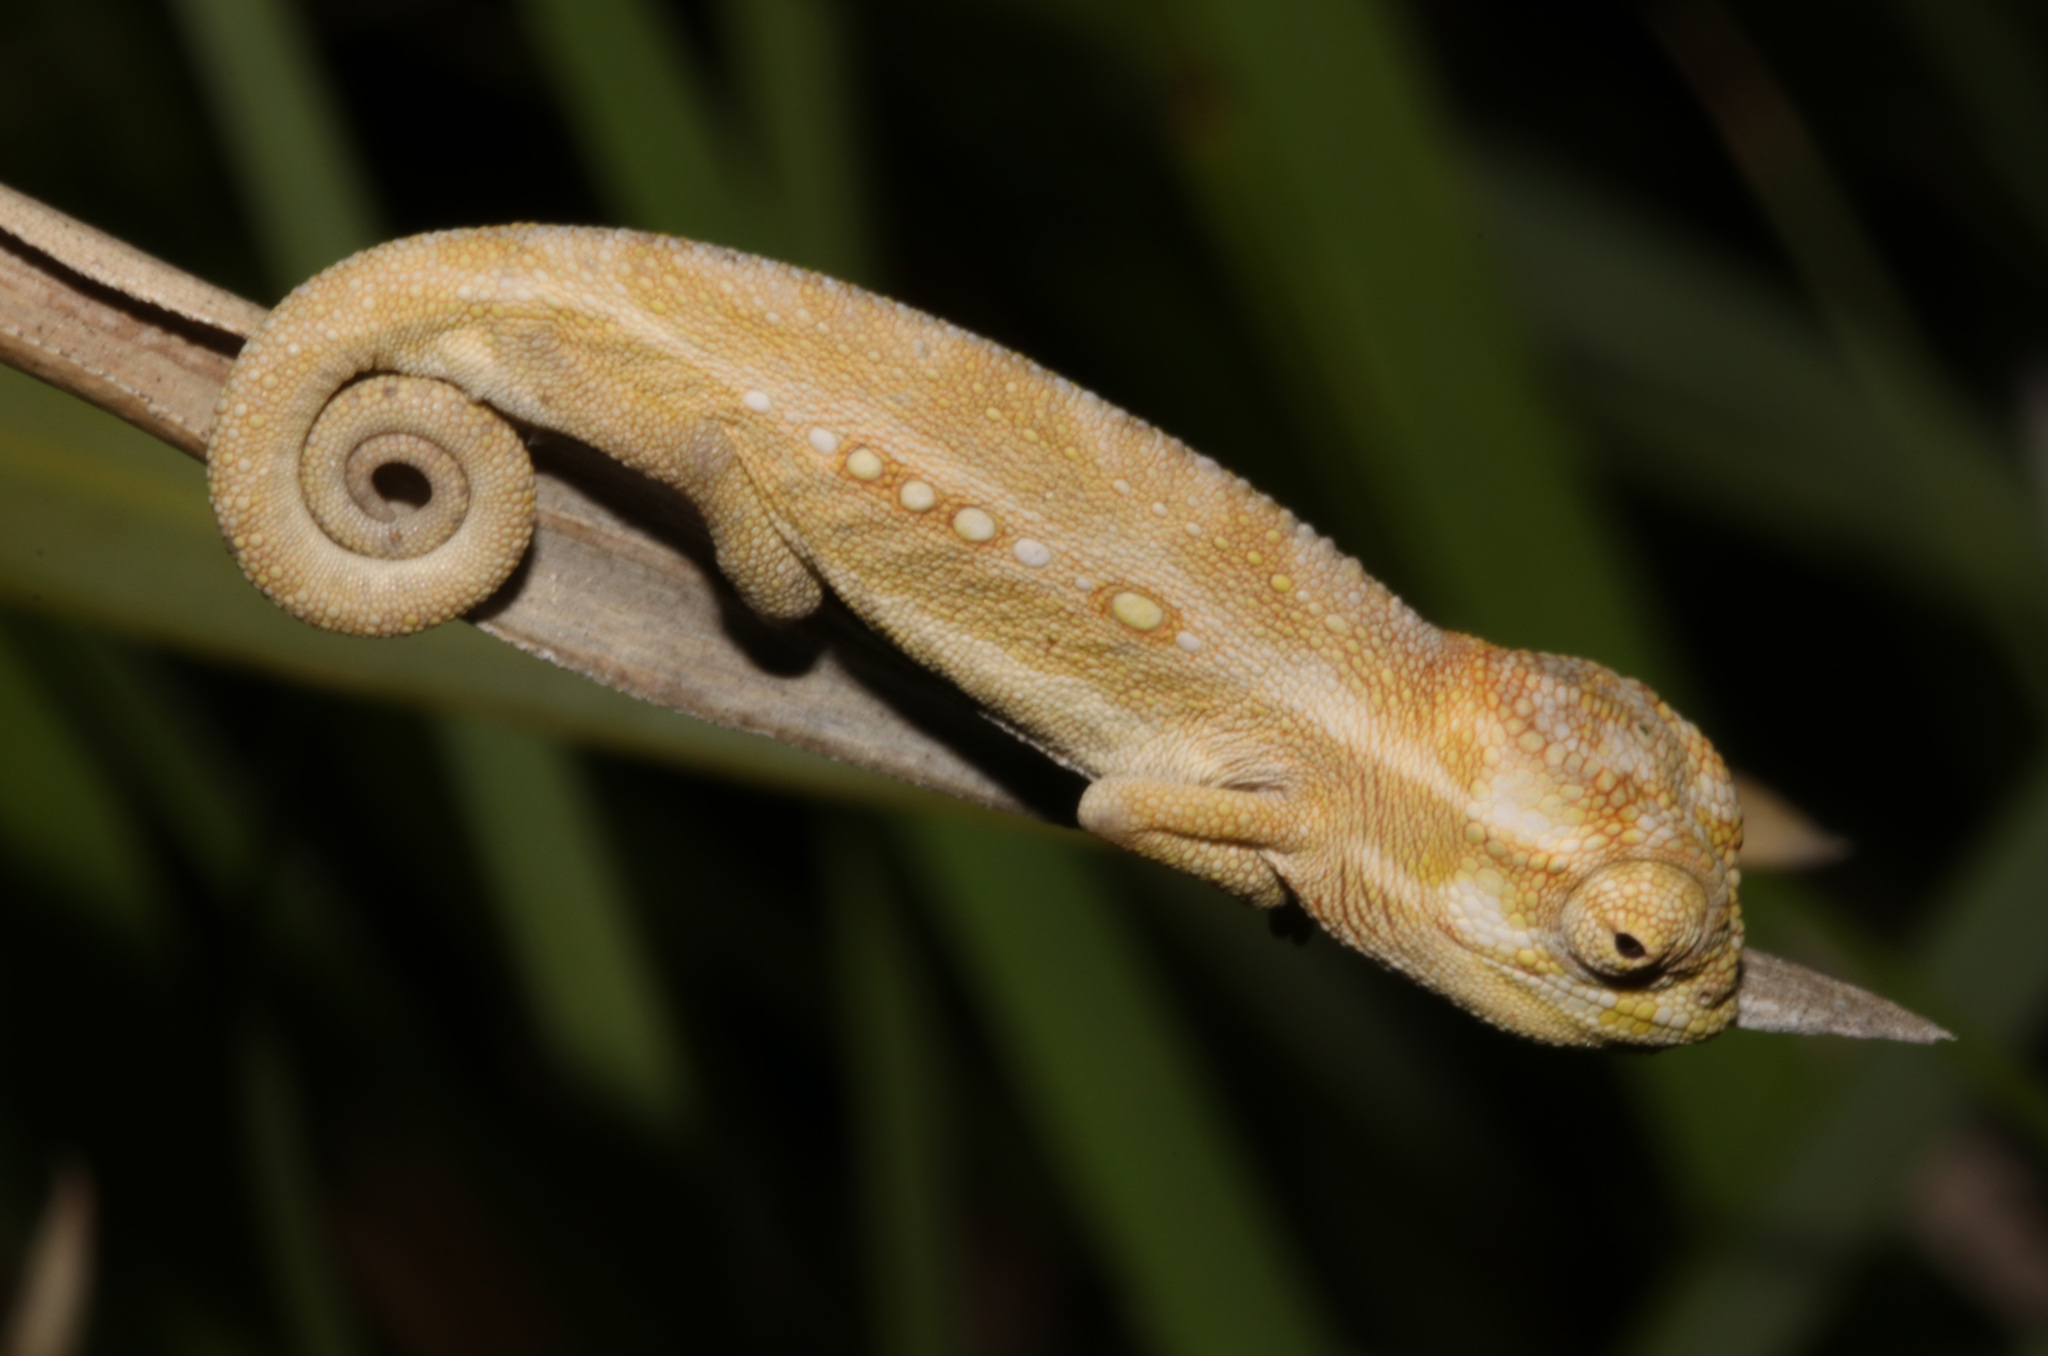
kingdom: Animalia
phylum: Chordata
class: Squamata
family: Chamaeleonidae
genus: Bradypodion
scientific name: Bradypodion pumilum
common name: Cape dwarf chameleon
